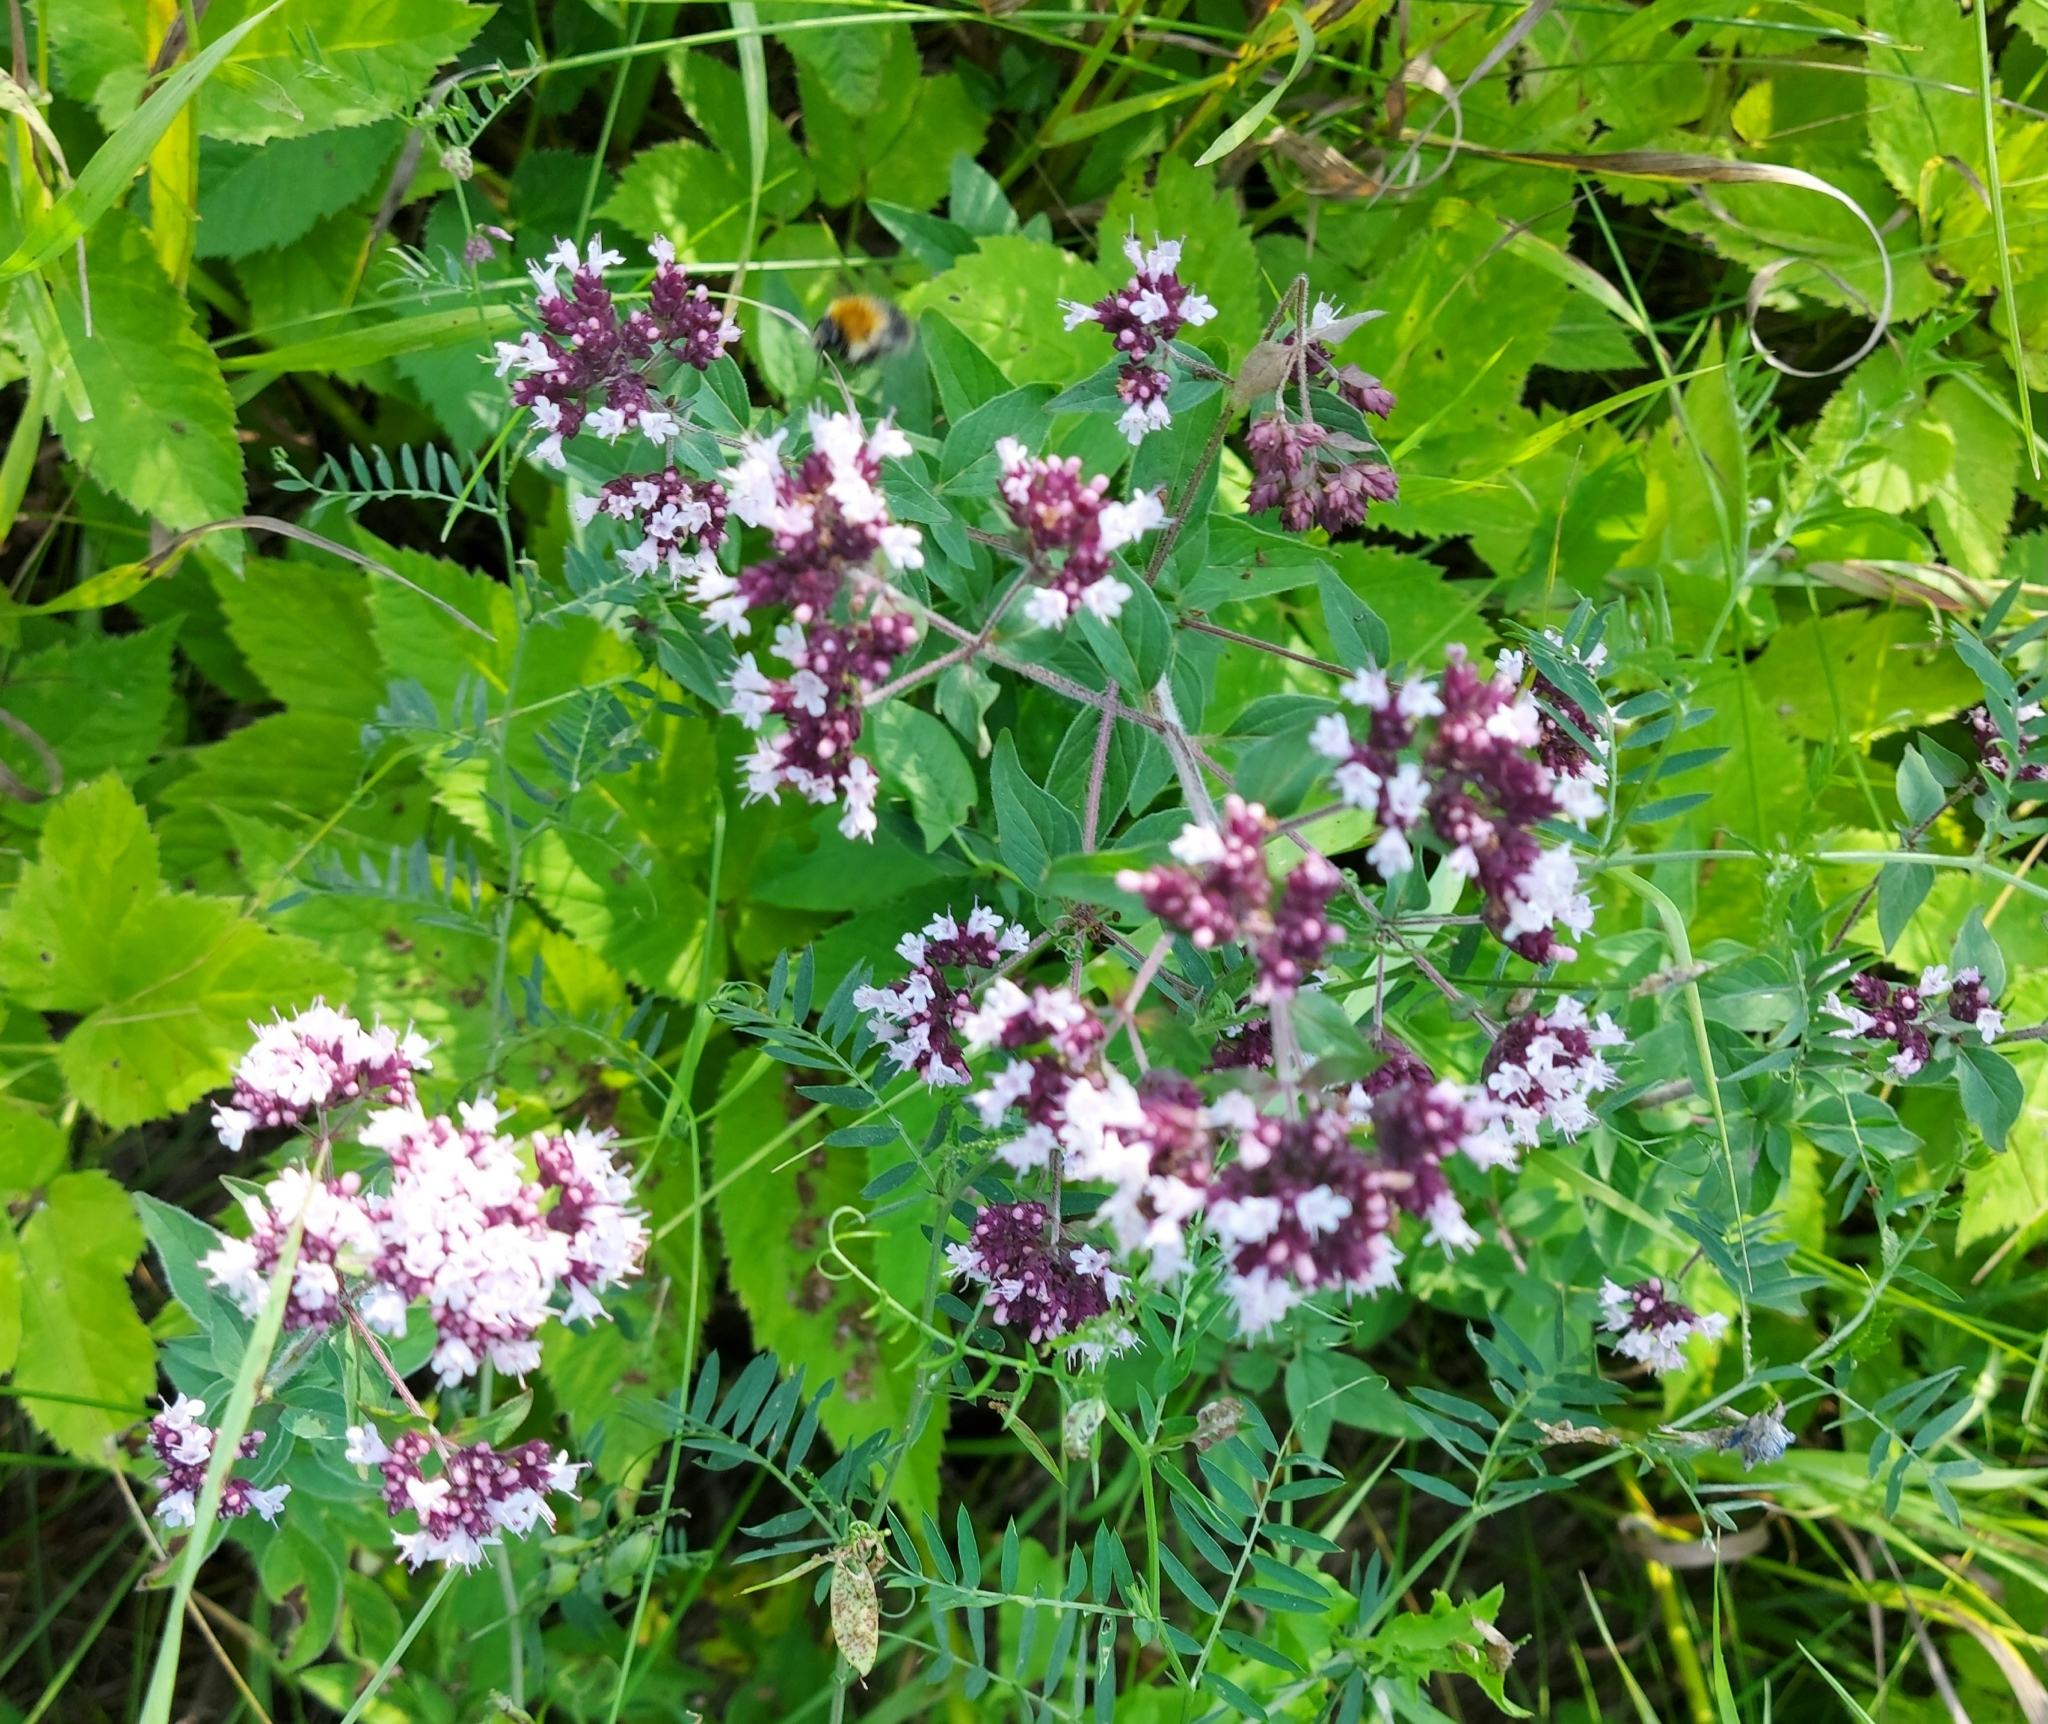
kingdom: Plantae
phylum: Tracheophyta
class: Magnoliopsida
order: Lamiales
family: Lamiaceae
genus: Origanum
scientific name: Origanum vulgare
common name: Wild marjoram
